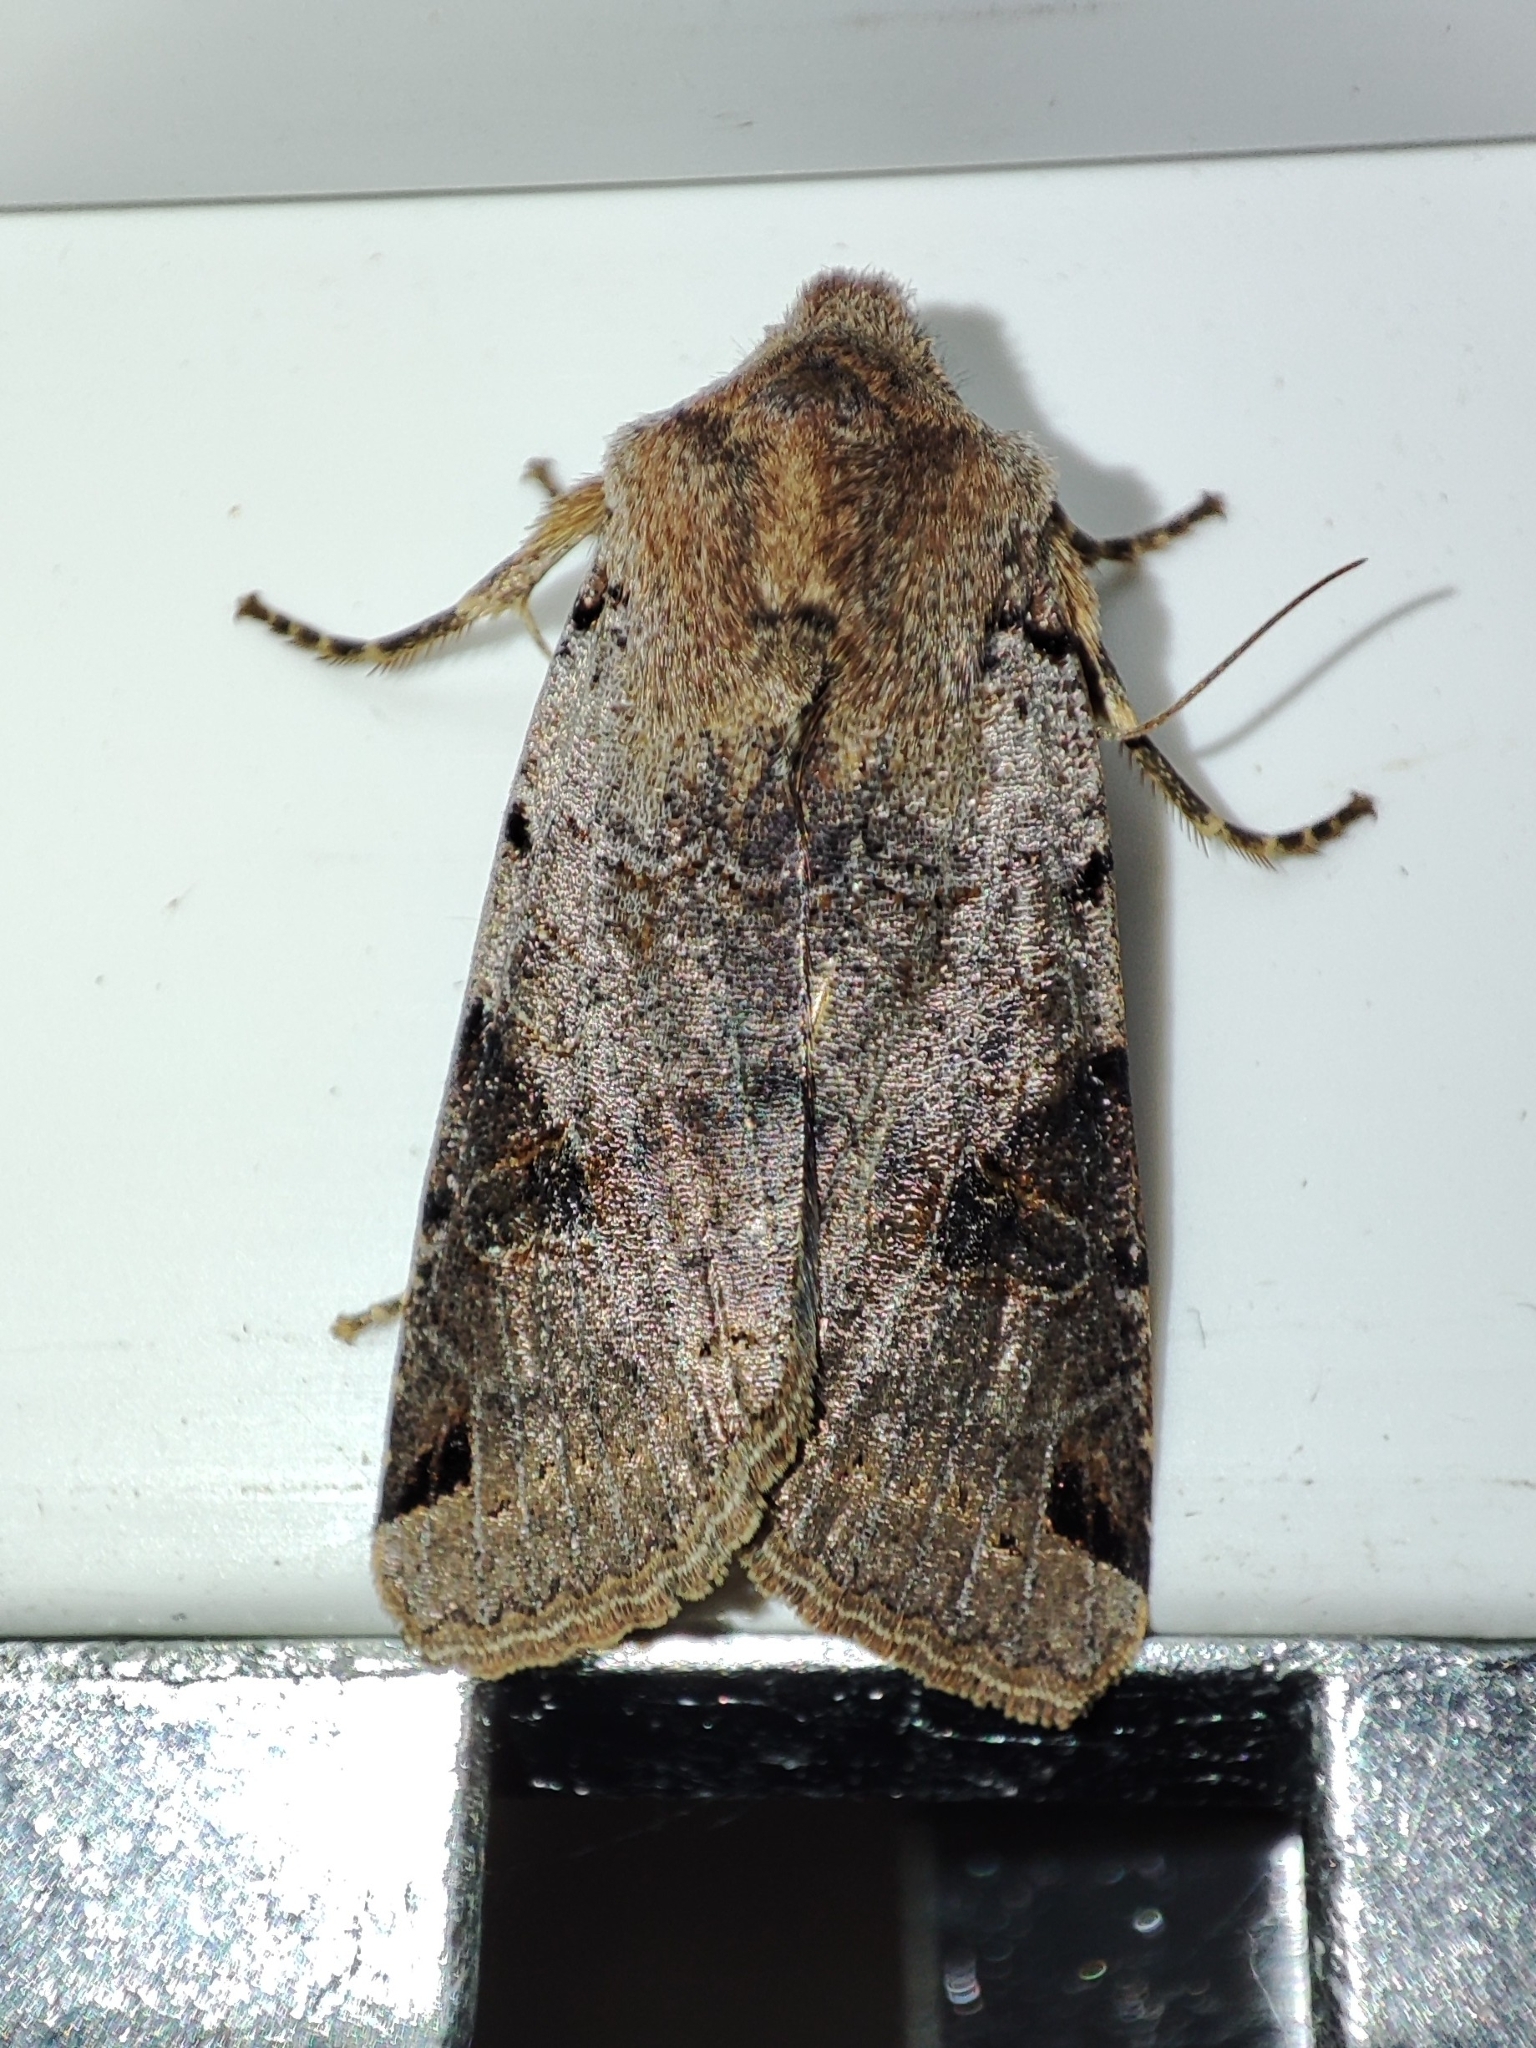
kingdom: Animalia
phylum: Arthropoda
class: Insecta
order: Lepidoptera
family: Noctuidae
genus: Agrochola
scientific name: Agrochola litura
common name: Brown-spot pinion
